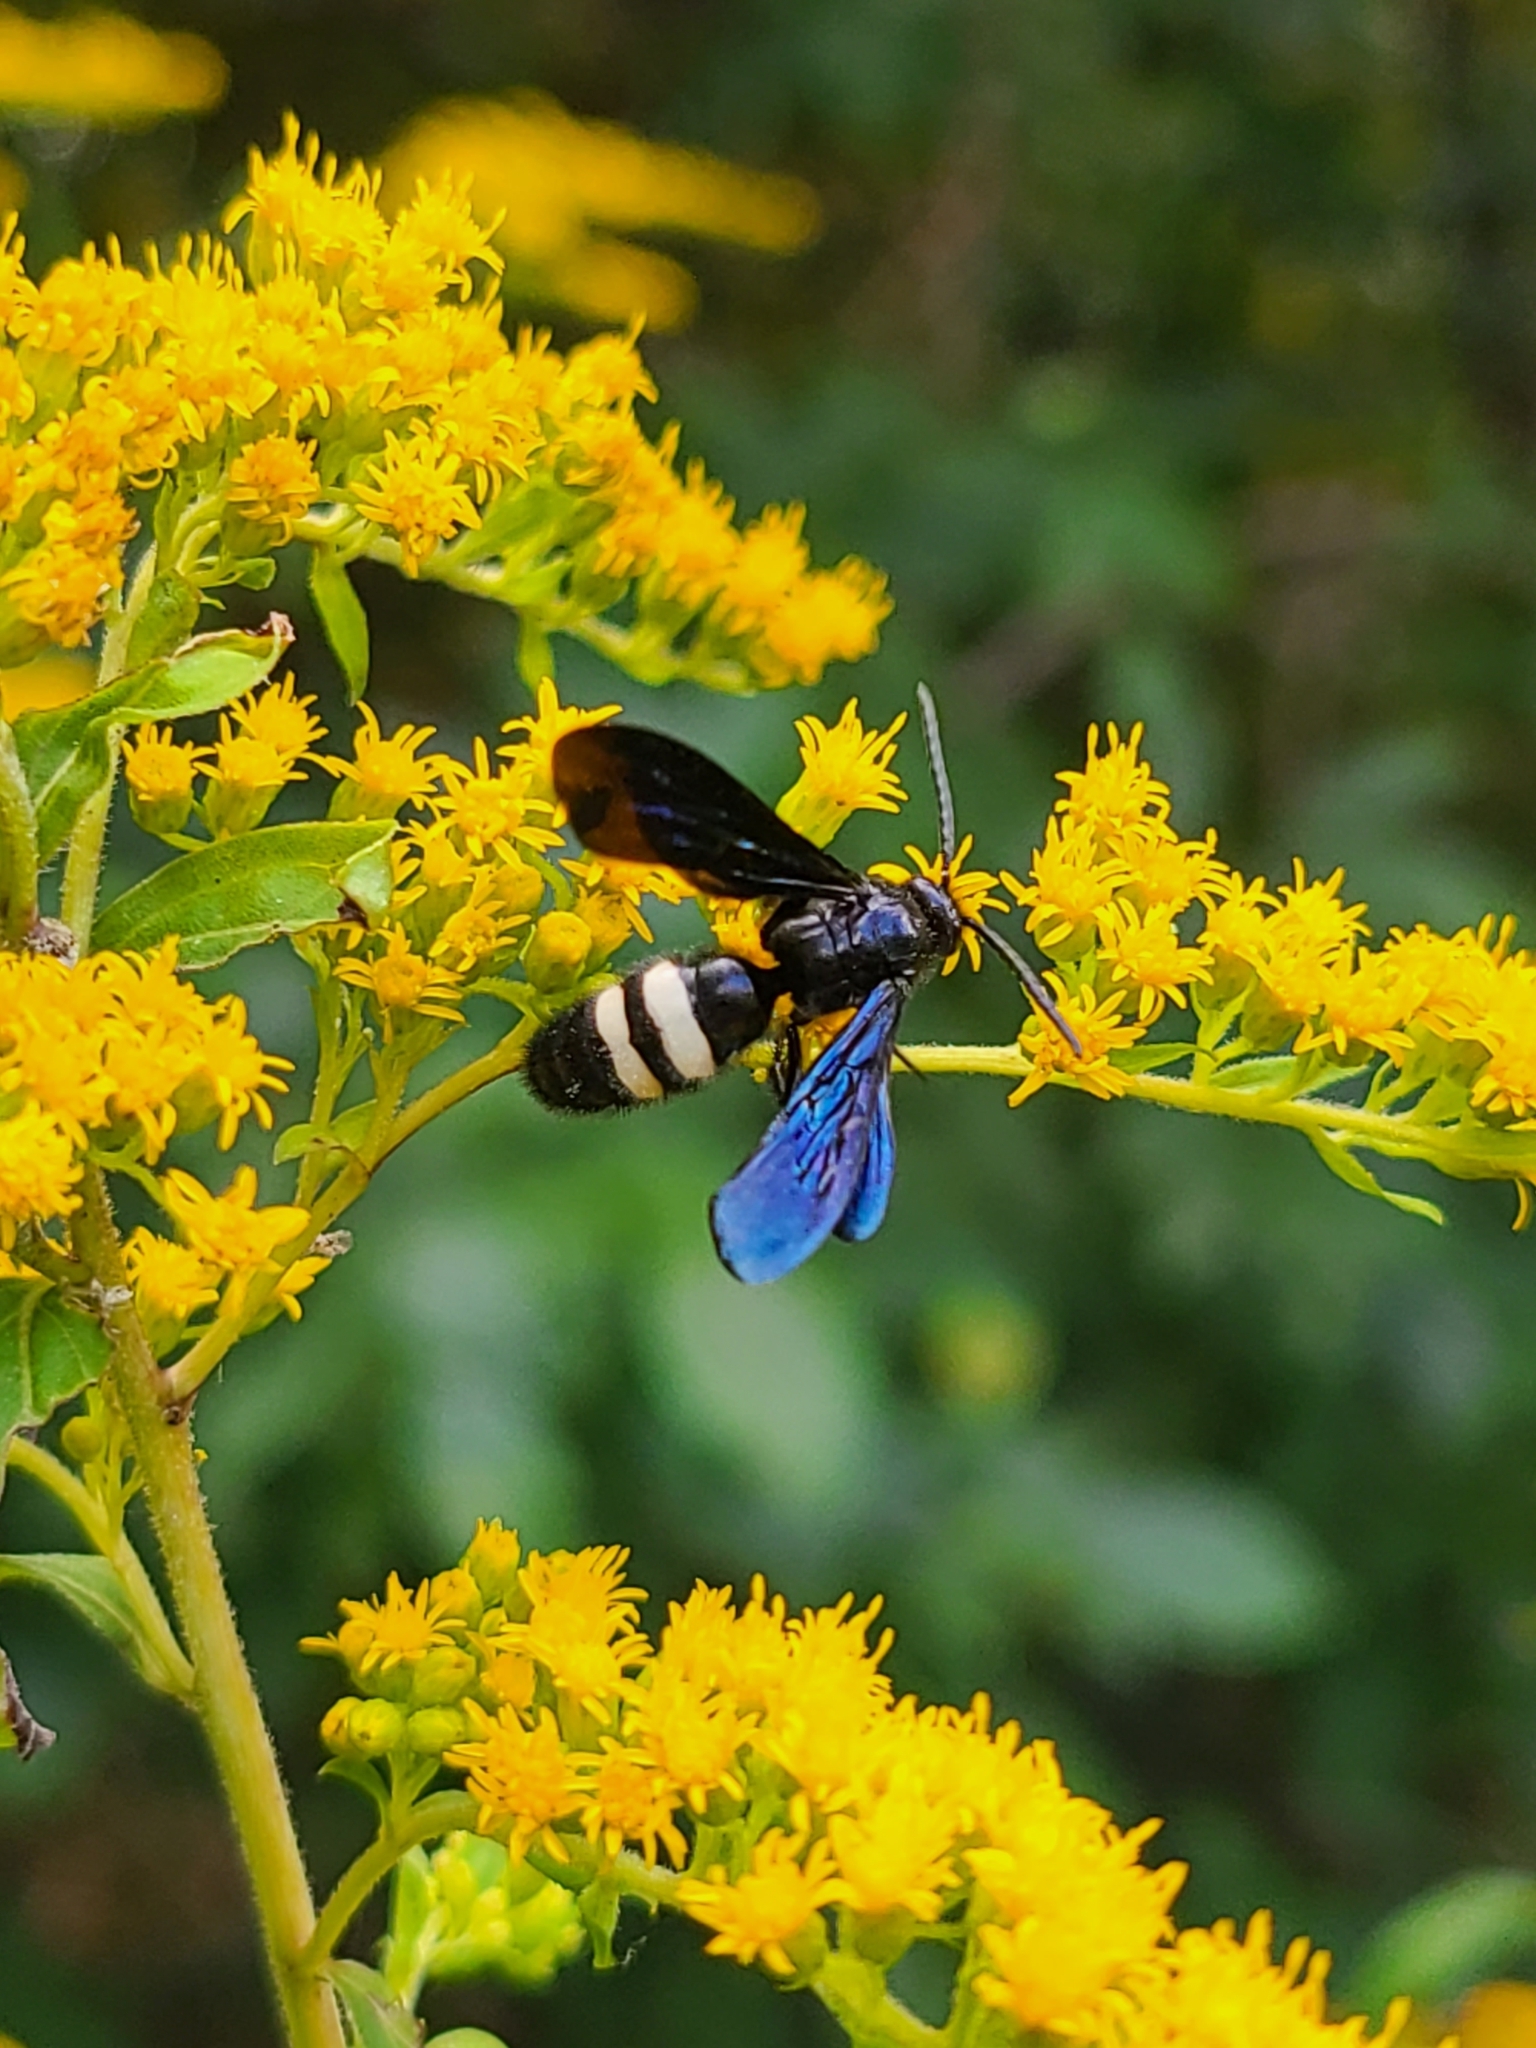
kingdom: Animalia
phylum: Arthropoda
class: Insecta
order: Hymenoptera
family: Scoliidae
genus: Scolia
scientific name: Scolia bicincta
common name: Double-banded scoliid wasp
